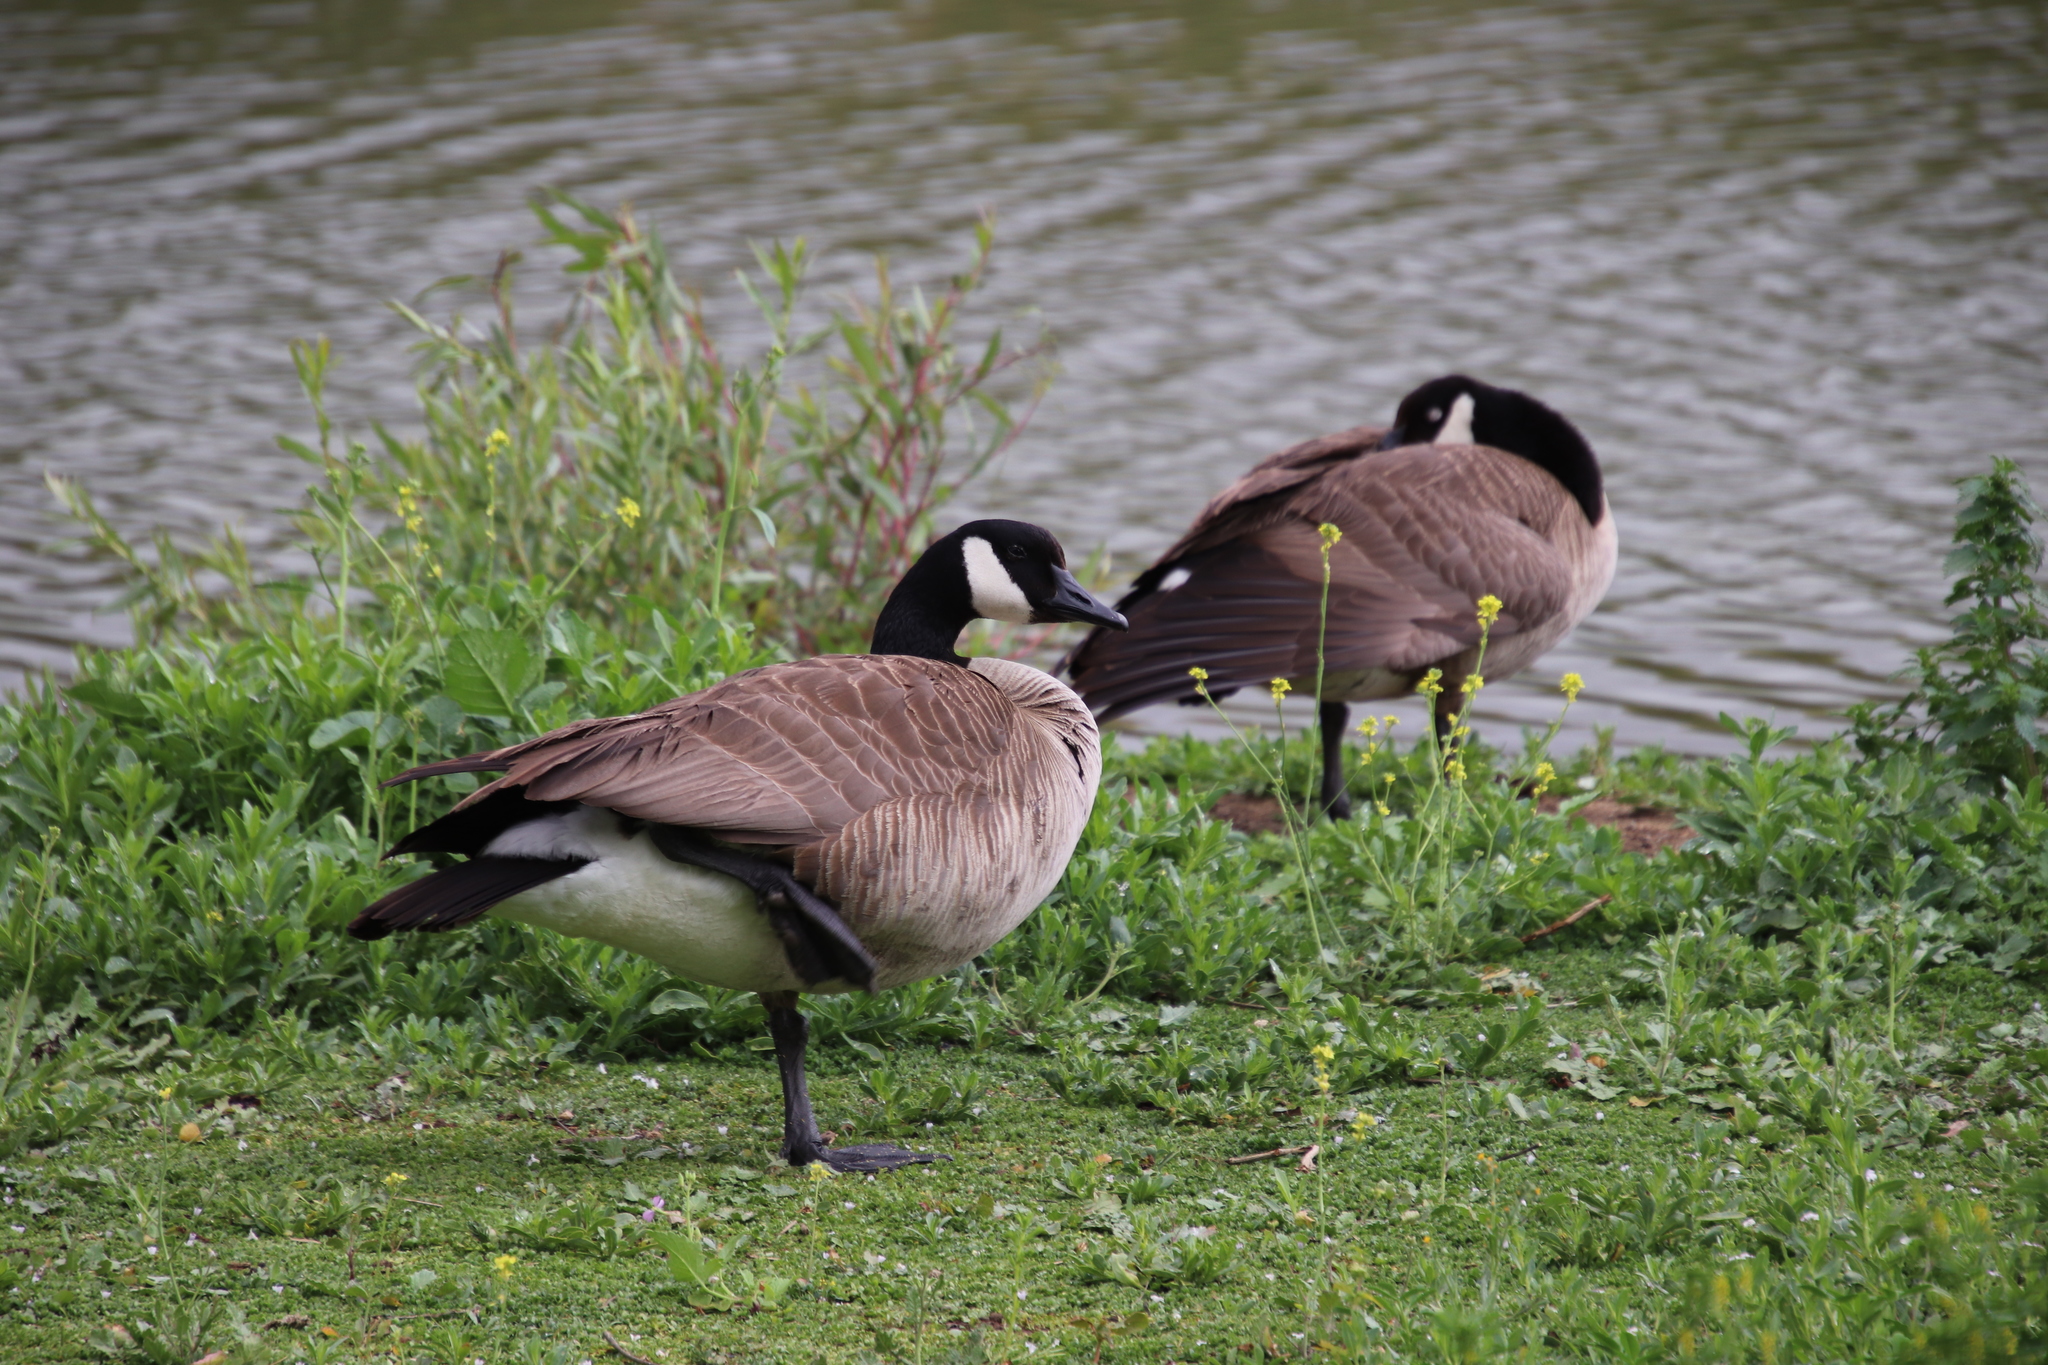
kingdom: Animalia
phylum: Chordata
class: Aves
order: Anseriformes
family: Anatidae
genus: Branta
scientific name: Branta canadensis
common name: Canada goose
